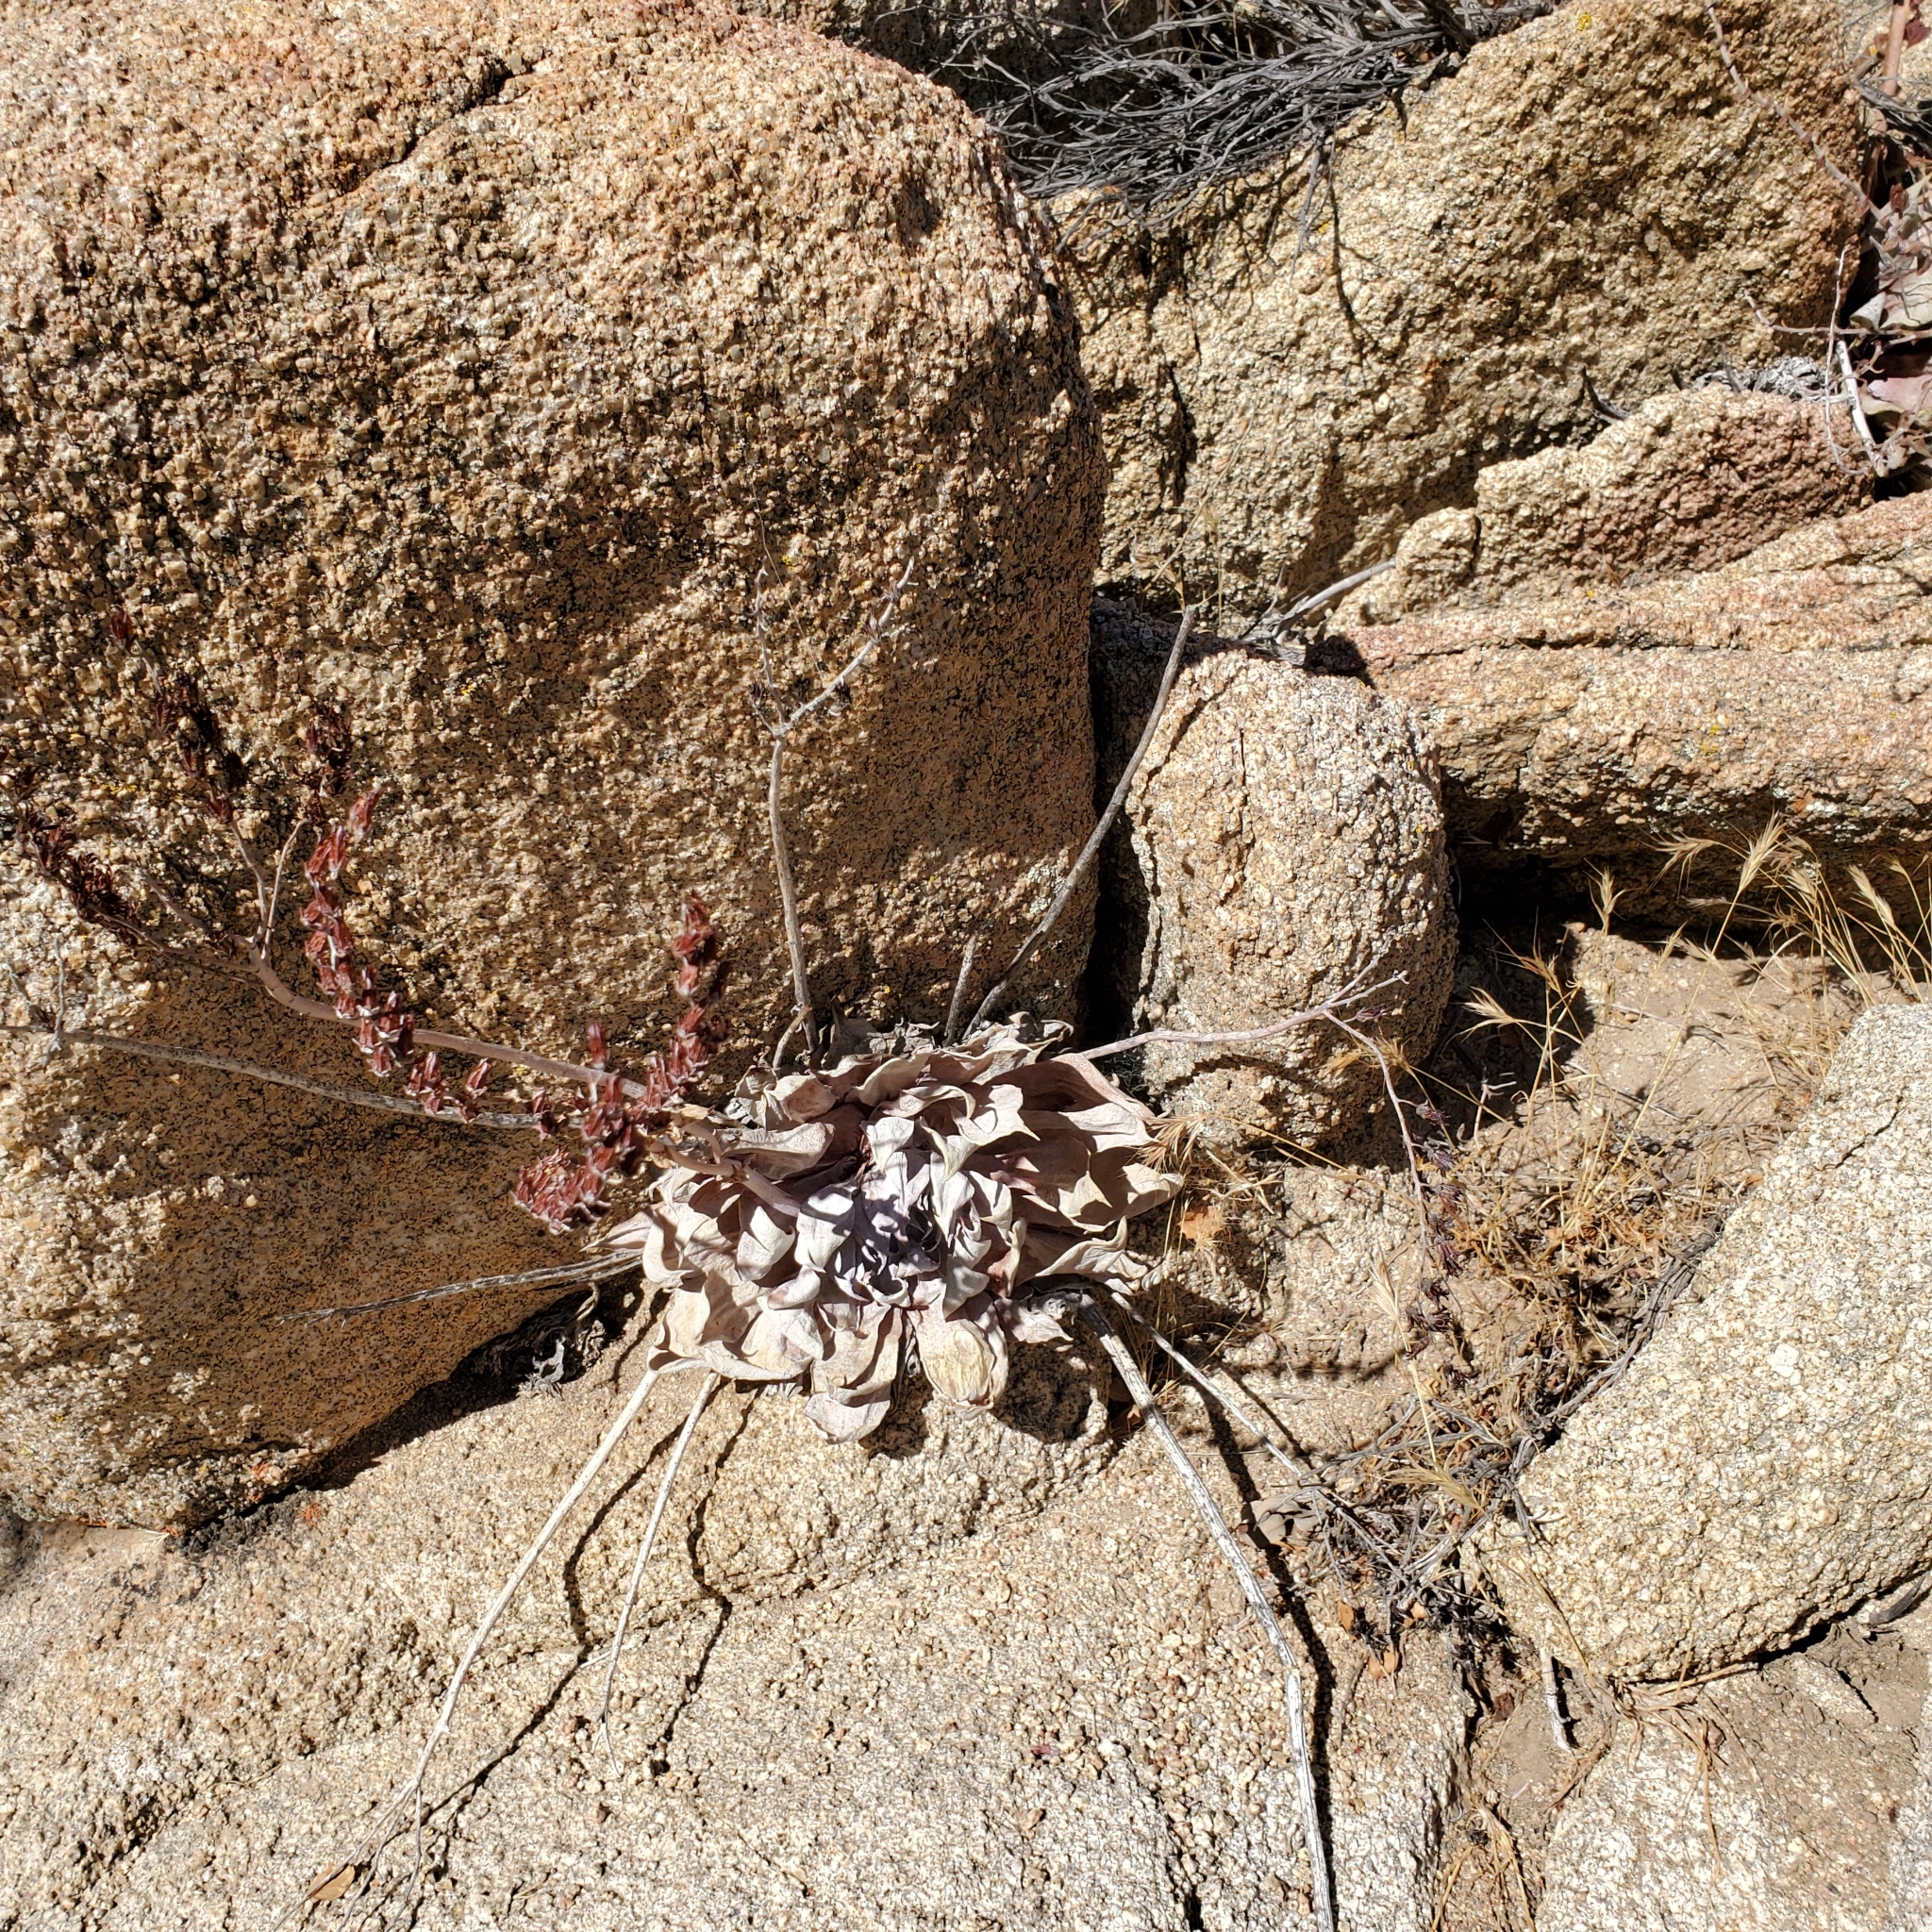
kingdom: Plantae
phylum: Tracheophyta
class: Magnoliopsida
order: Saxifragales
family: Crassulaceae
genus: Dudleya
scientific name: Dudleya arizonica
